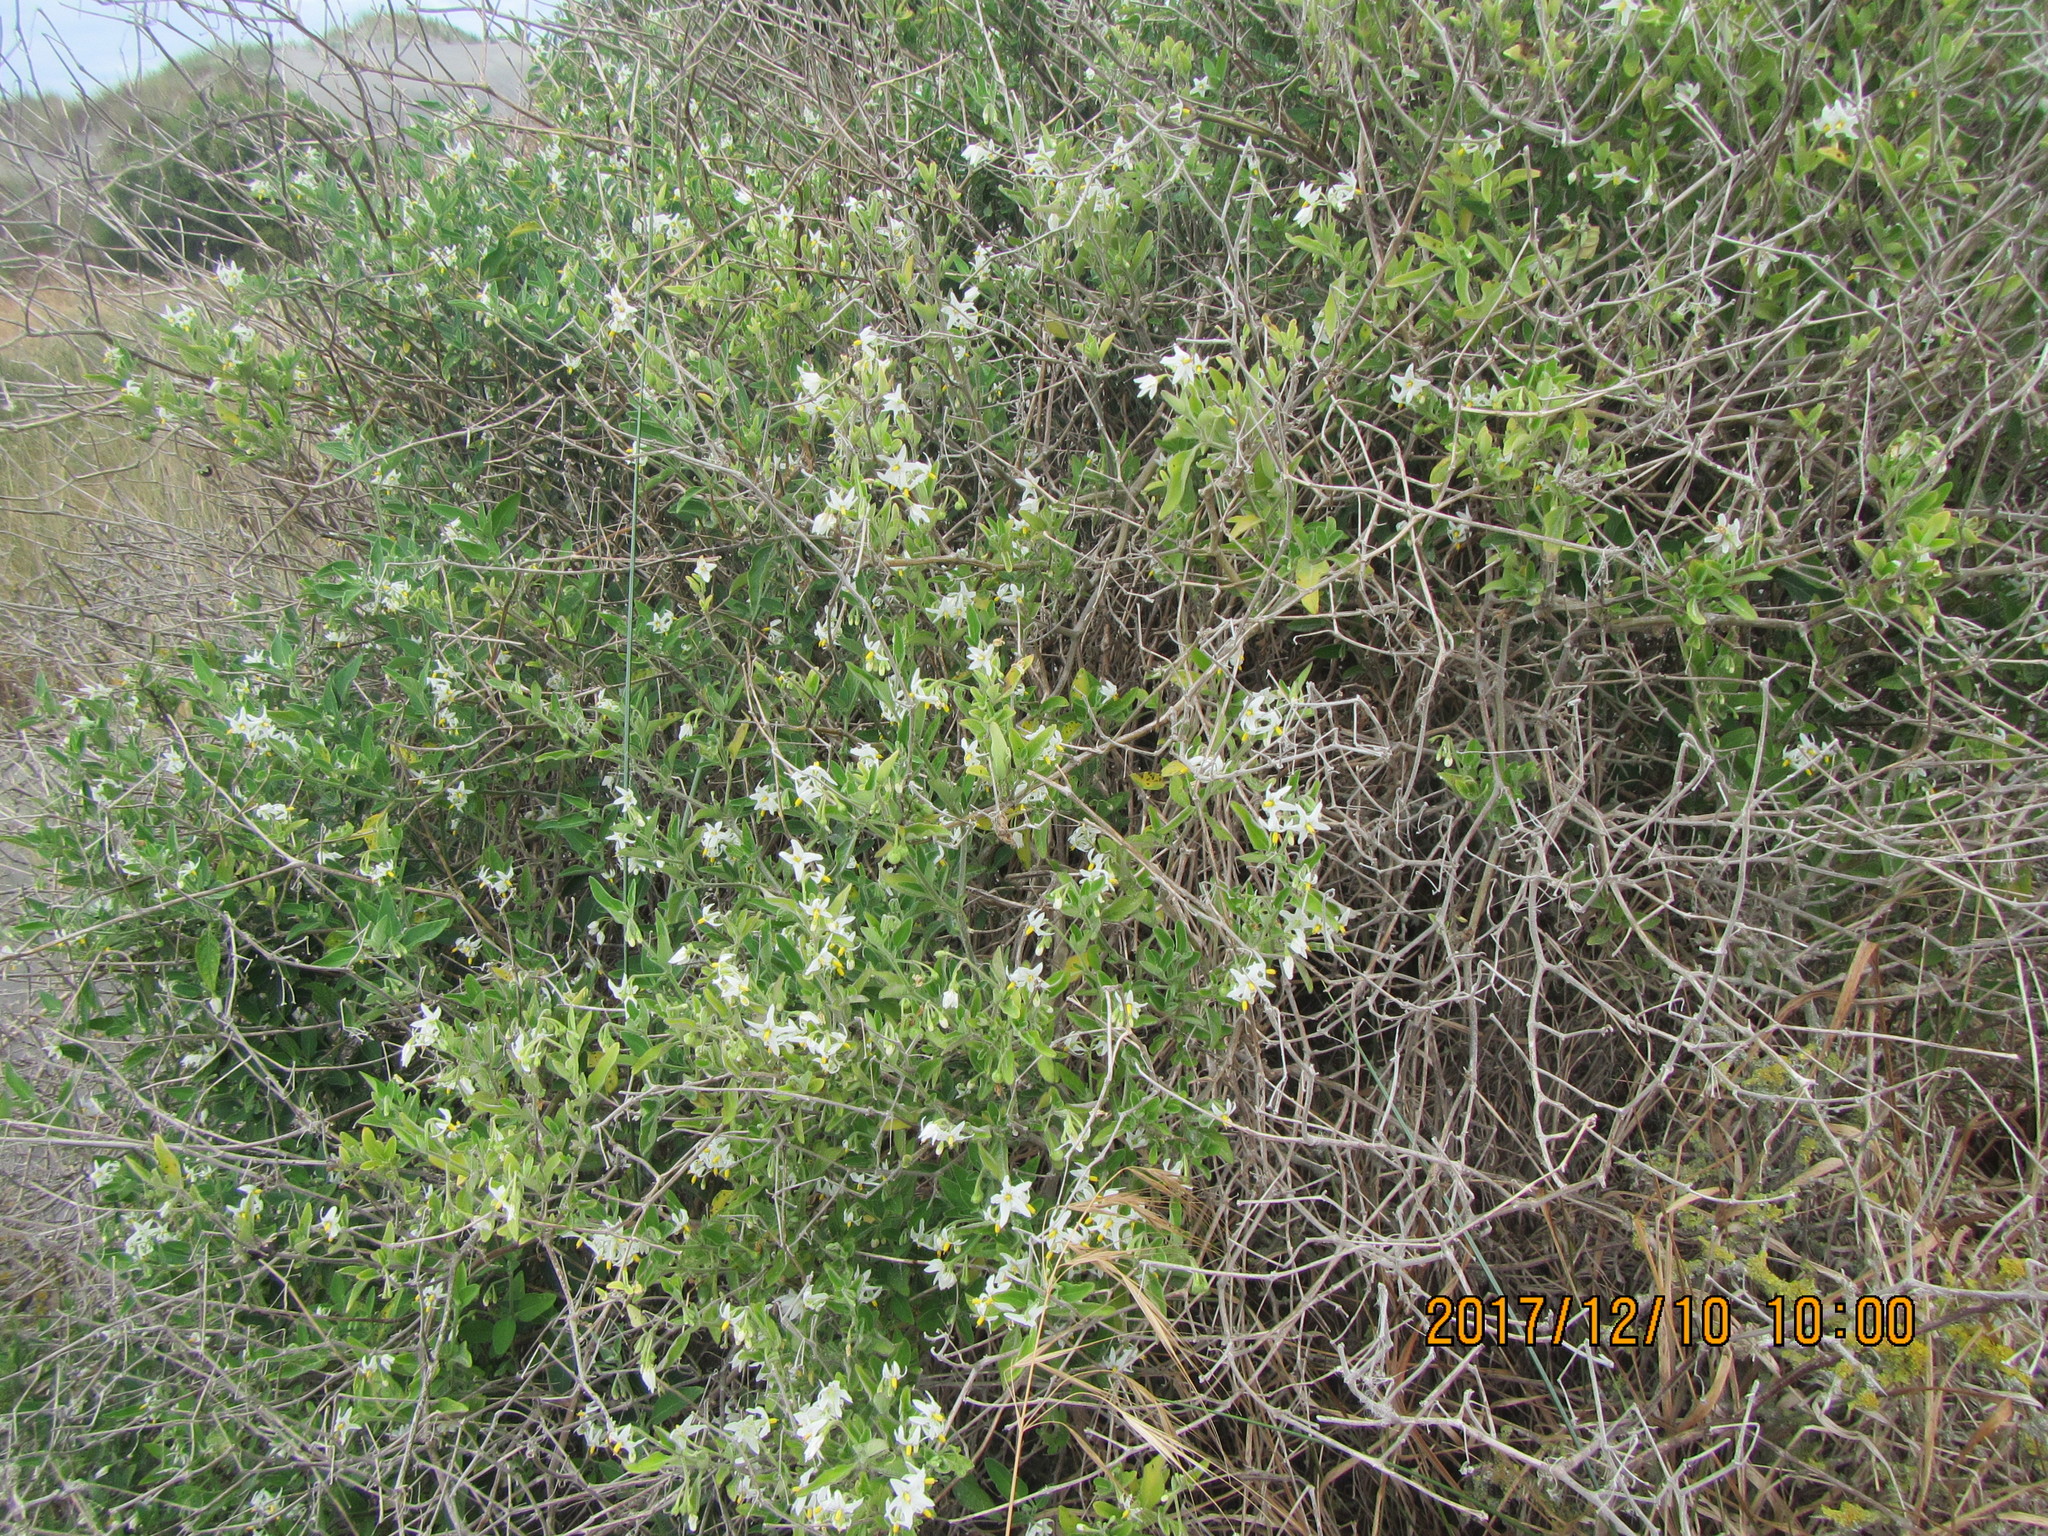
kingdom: Plantae
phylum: Tracheophyta
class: Magnoliopsida
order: Solanales
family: Solanaceae
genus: Lycium
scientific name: Lycium ferocissimum
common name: African boxthorn
